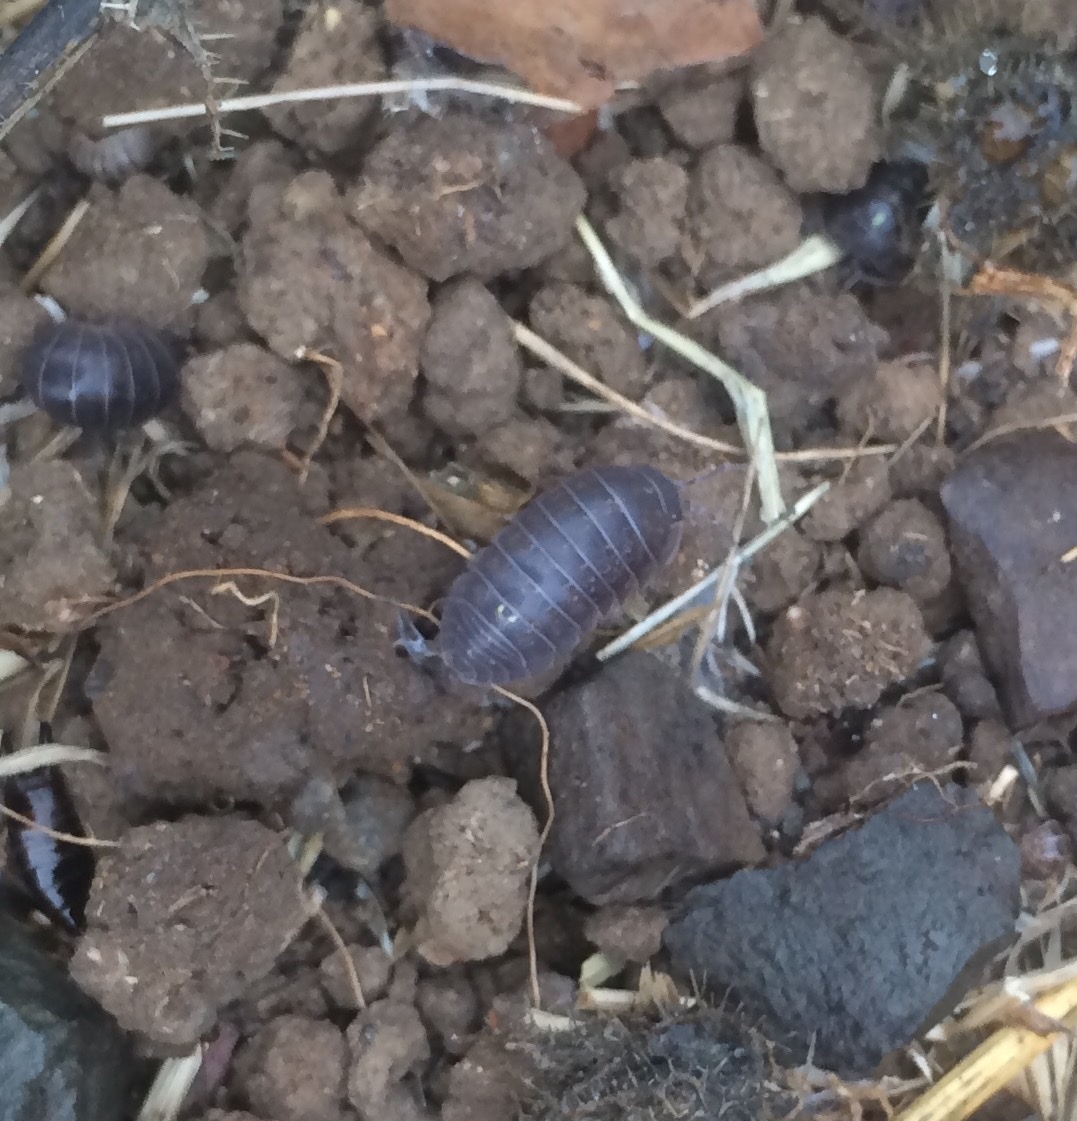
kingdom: Animalia
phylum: Arthropoda
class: Malacostraca
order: Isopoda
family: Armadillidiidae
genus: Armadillidium
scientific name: Armadillidium vulgare
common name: Common pill woodlouse
